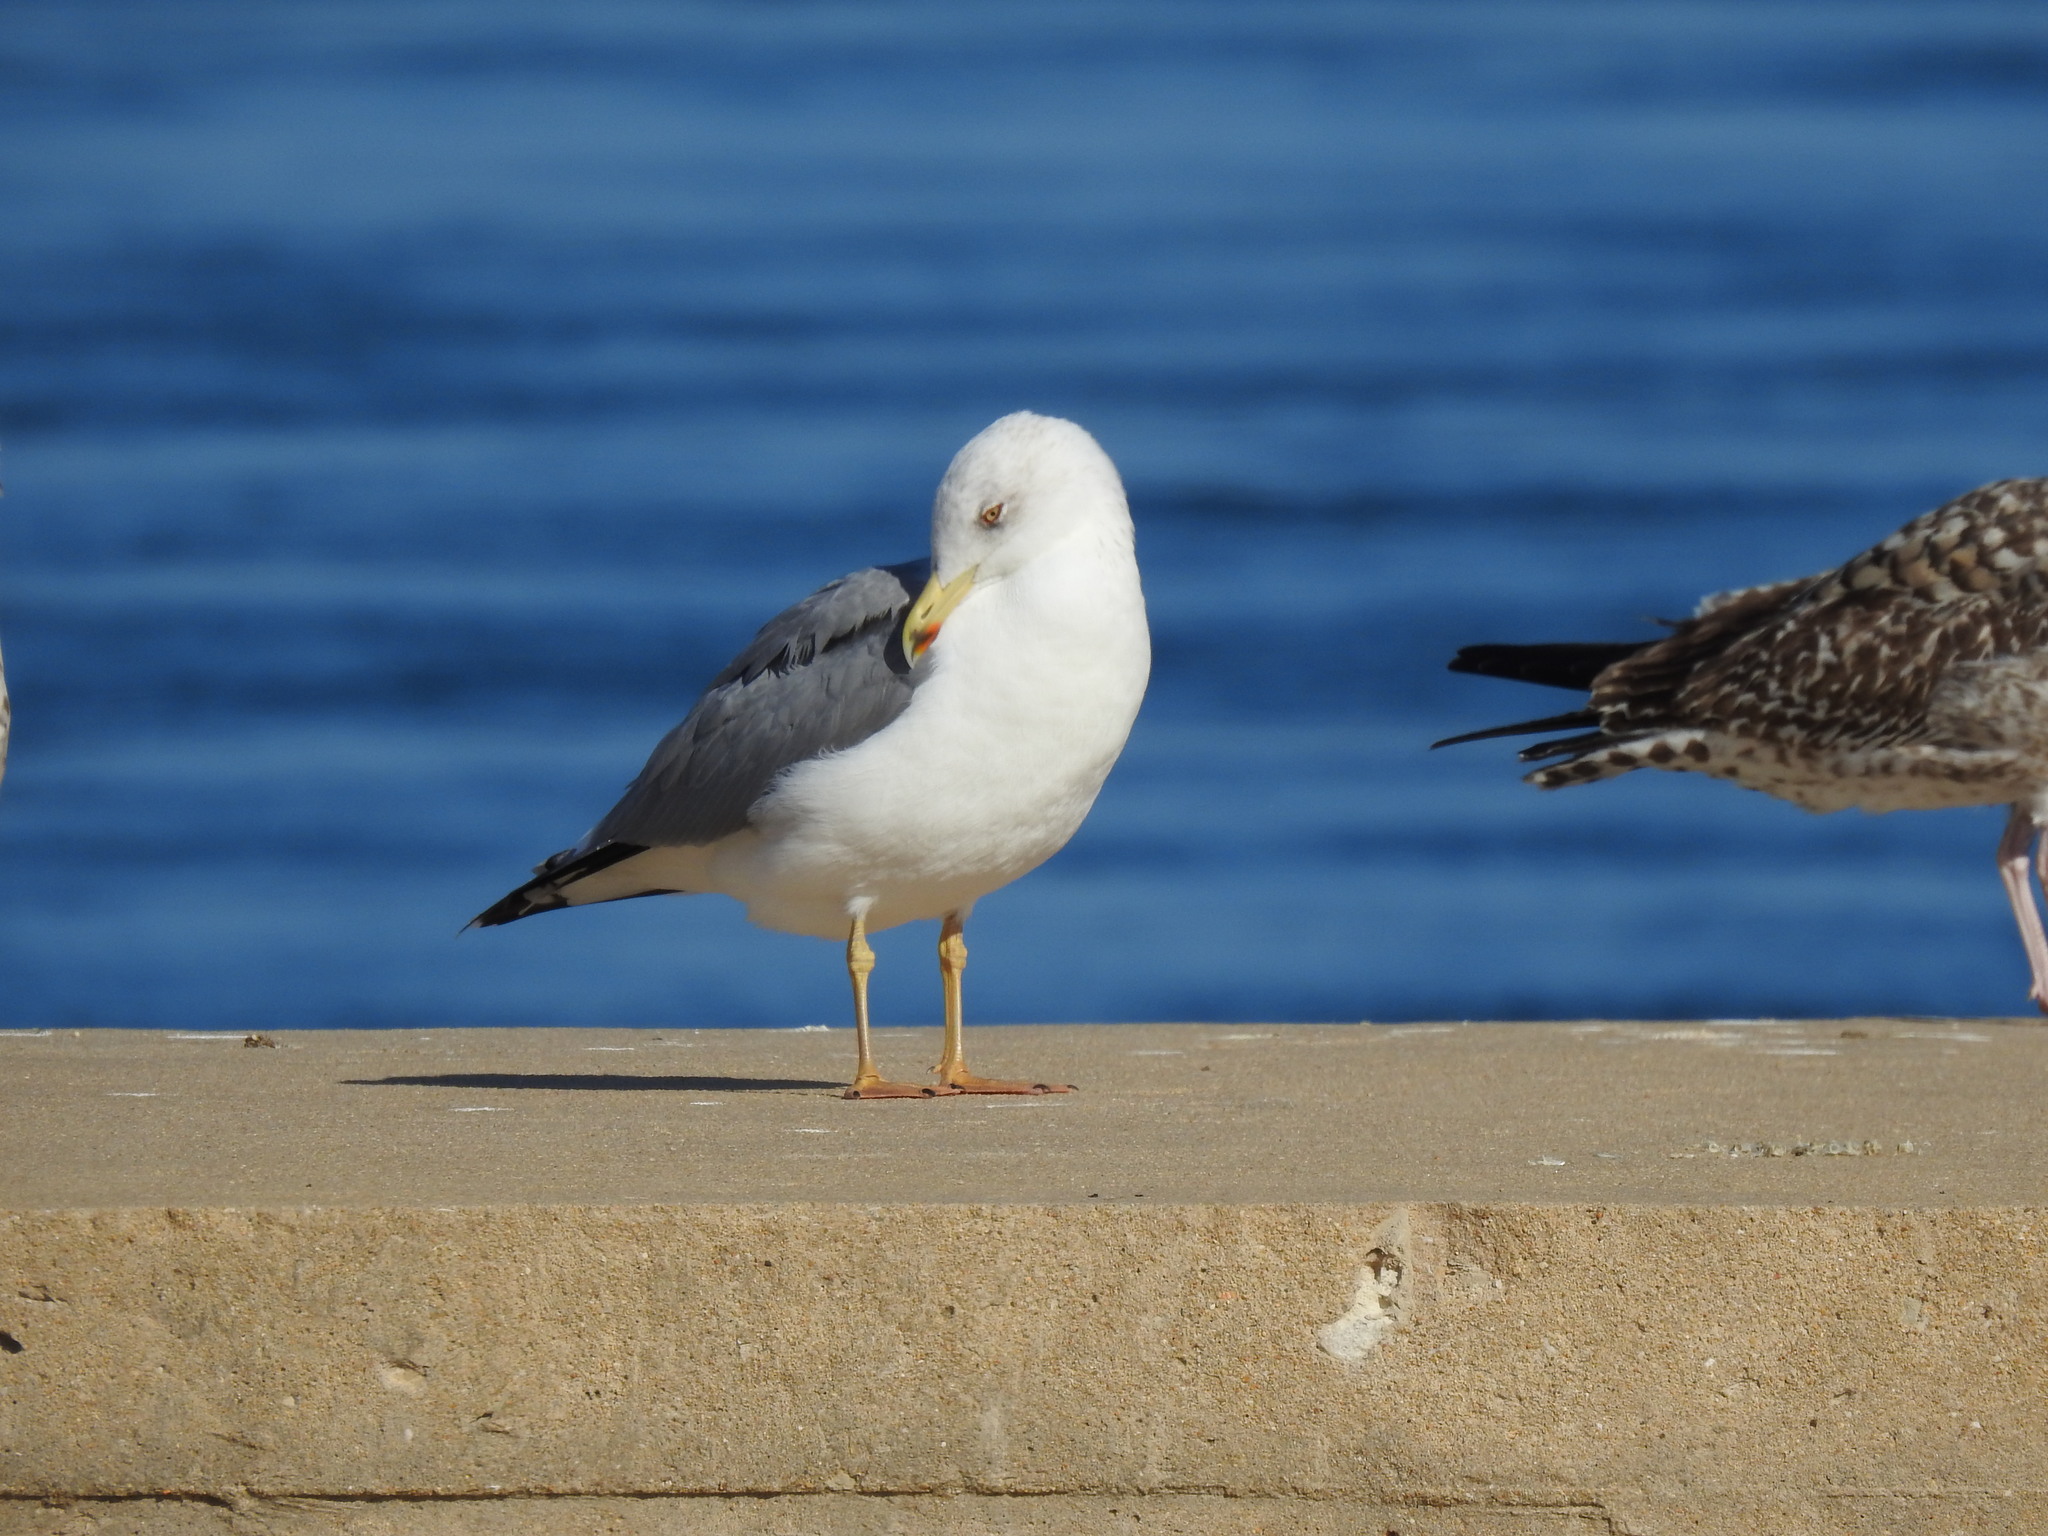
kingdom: Animalia
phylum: Chordata
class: Aves
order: Charadriiformes
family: Laridae
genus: Larus
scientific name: Larus michahellis
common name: Yellow-legged gull
